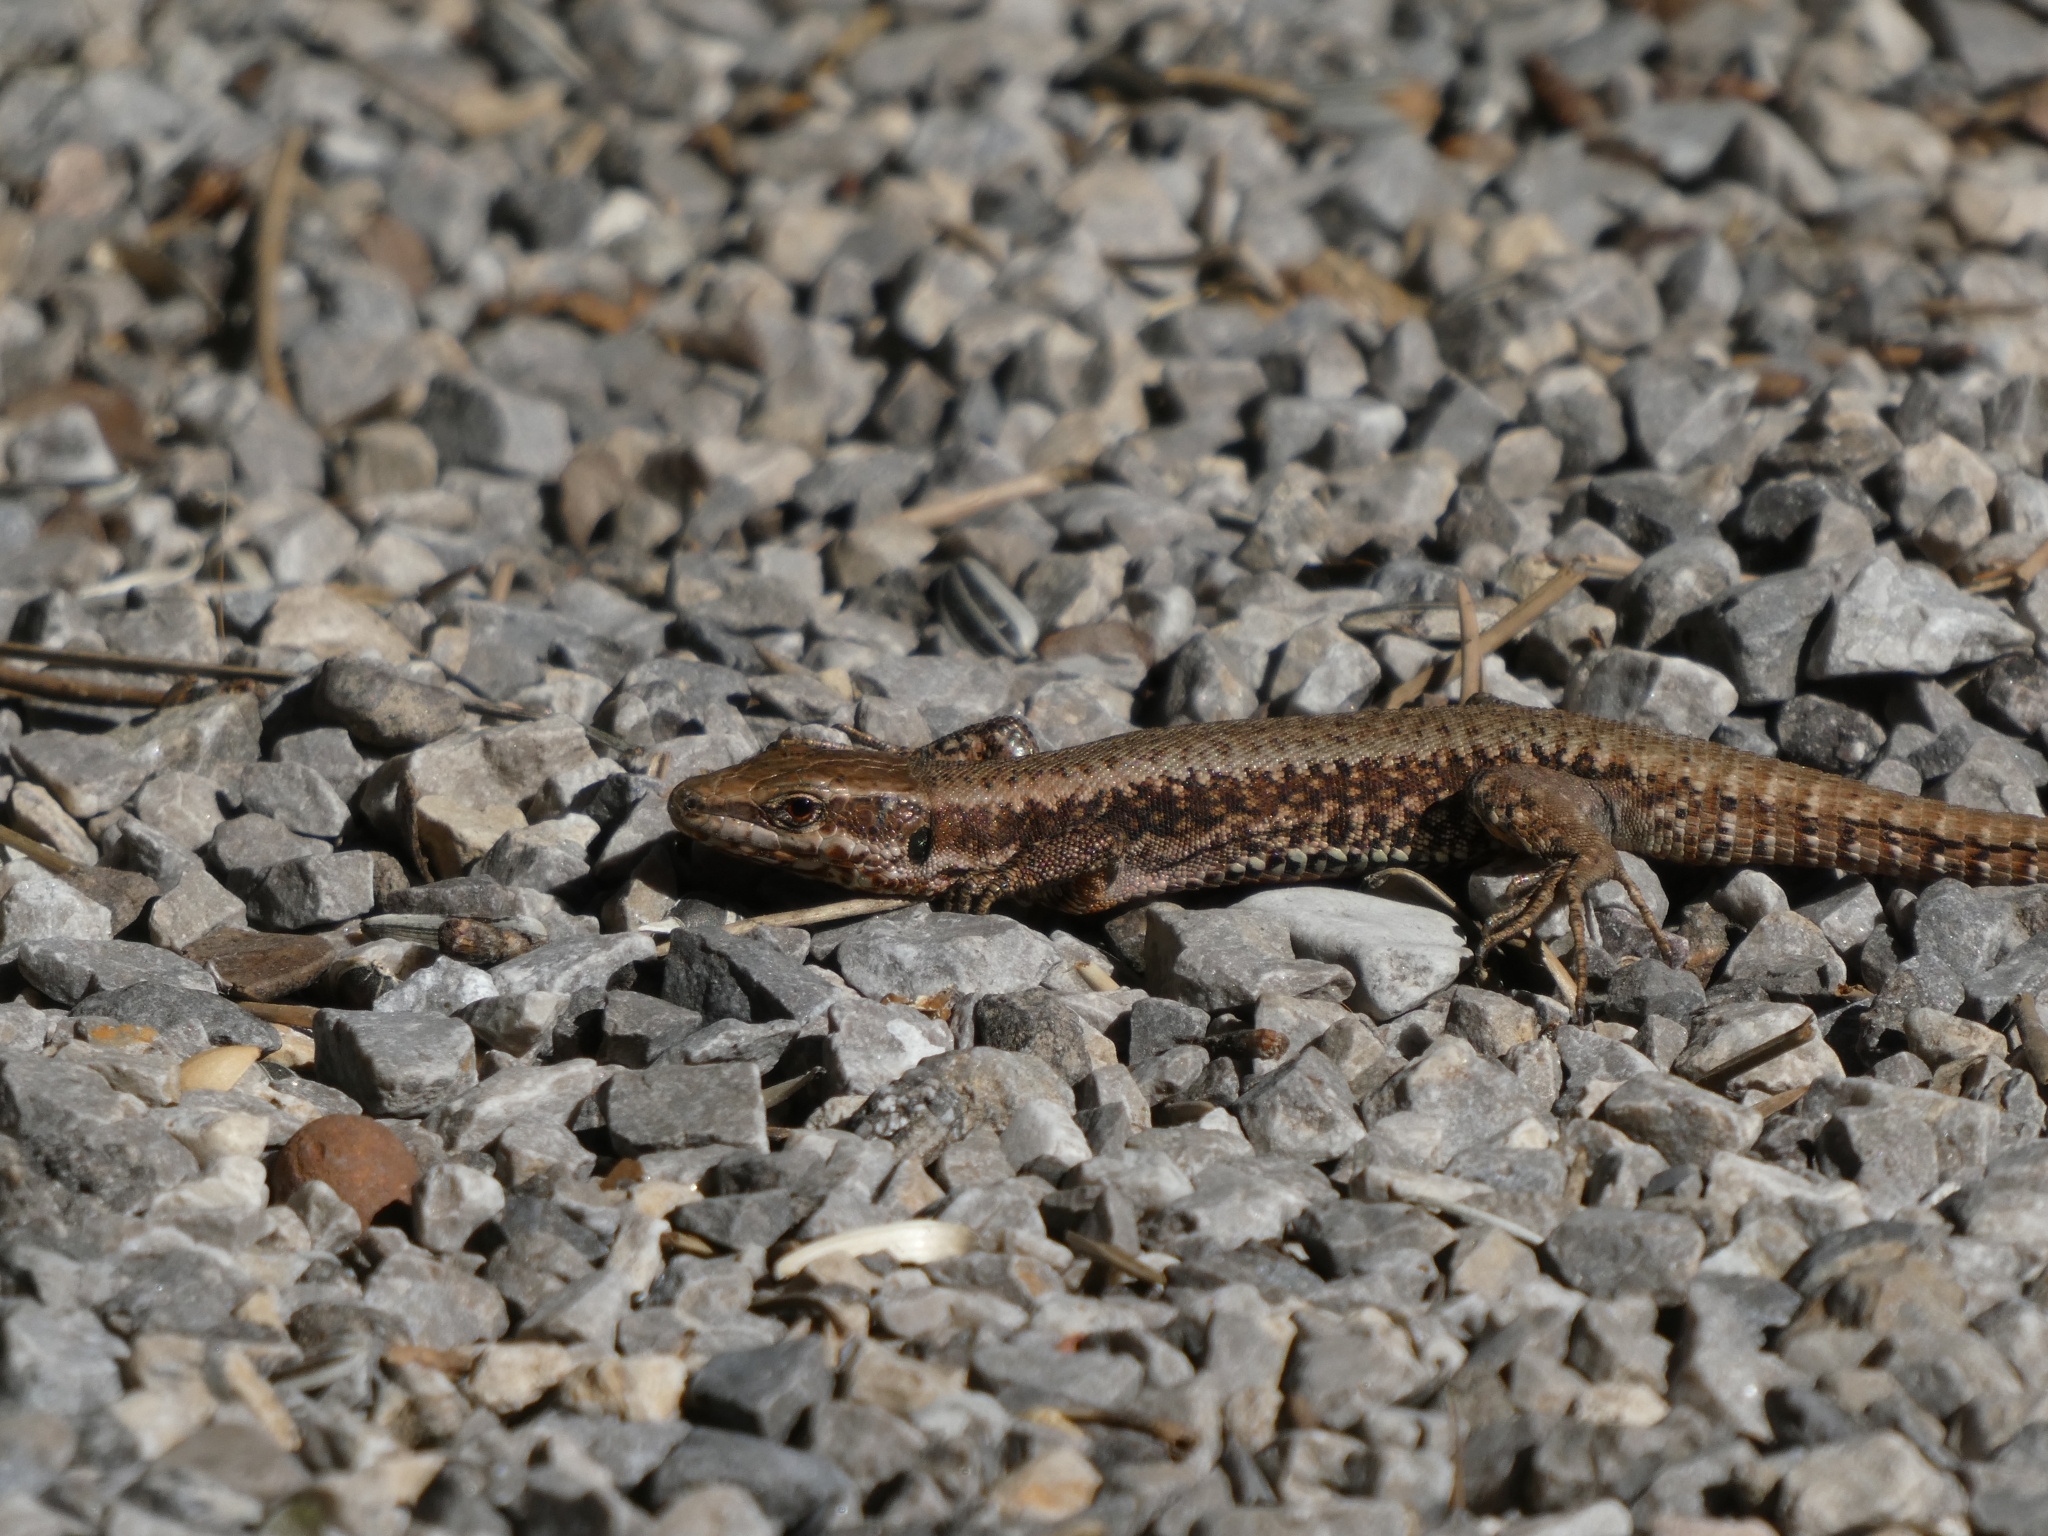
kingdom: Animalia
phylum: Chordata
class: Squamata
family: Lacertidae
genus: Podarcis
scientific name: Podarcis muralis
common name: Common wall lizard
